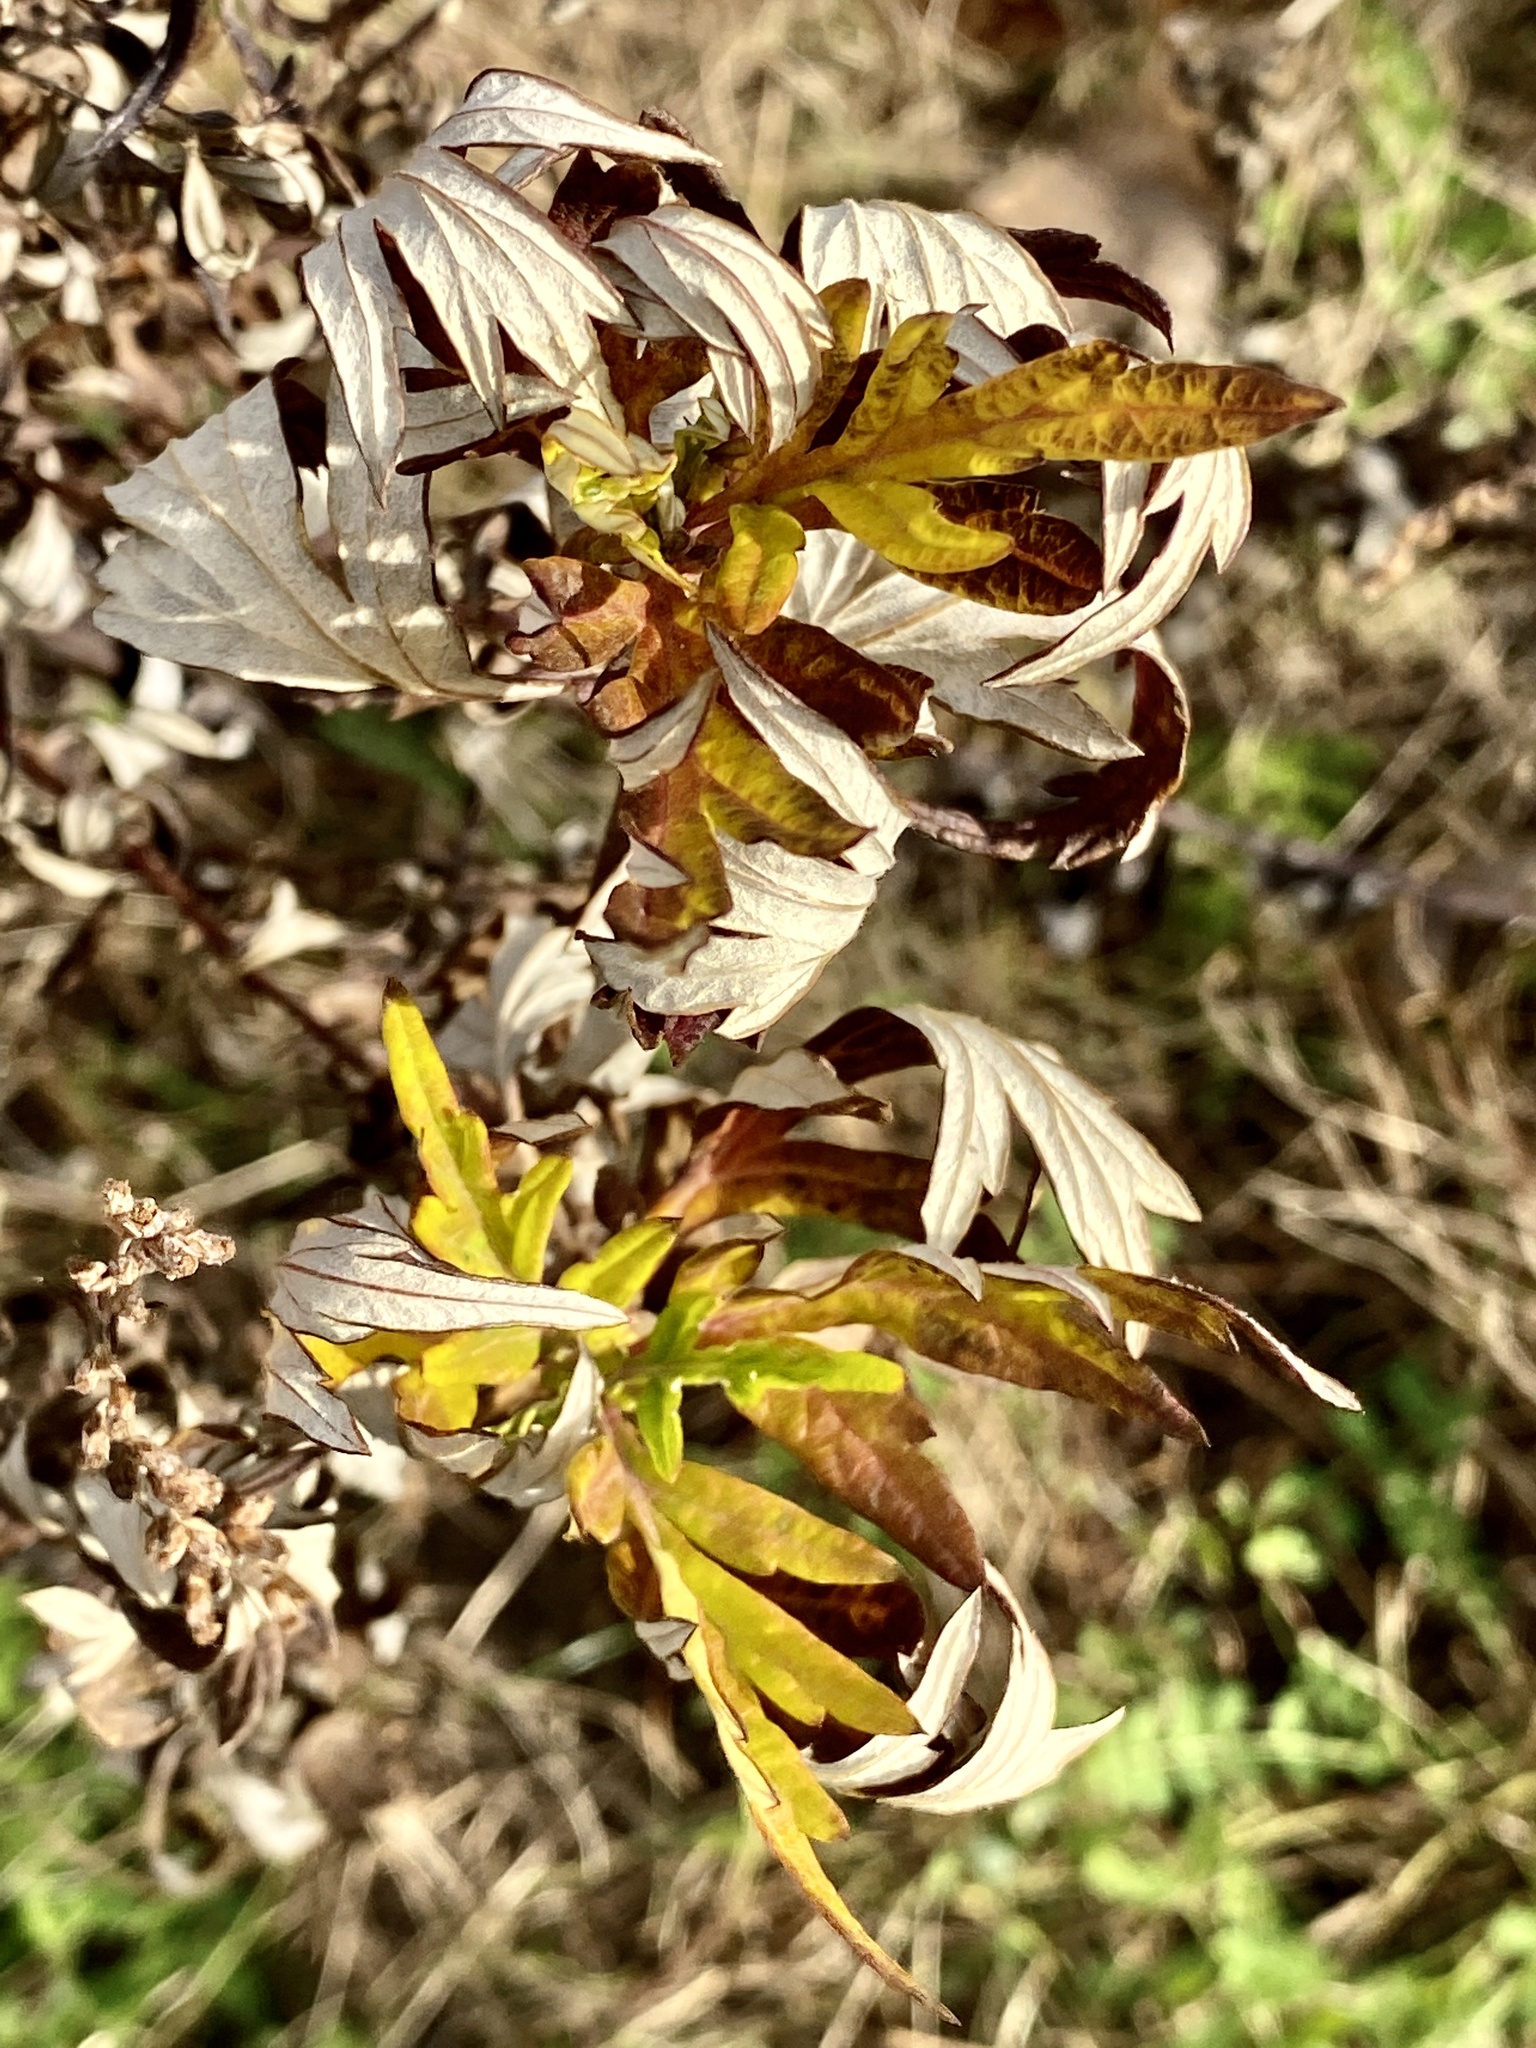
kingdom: Plantae
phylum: Tracheophyta
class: Magnoliopsida
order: Asterales
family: Asteraceae
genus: Artemisia
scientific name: Artemisia vulgaris
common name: Mugwort
